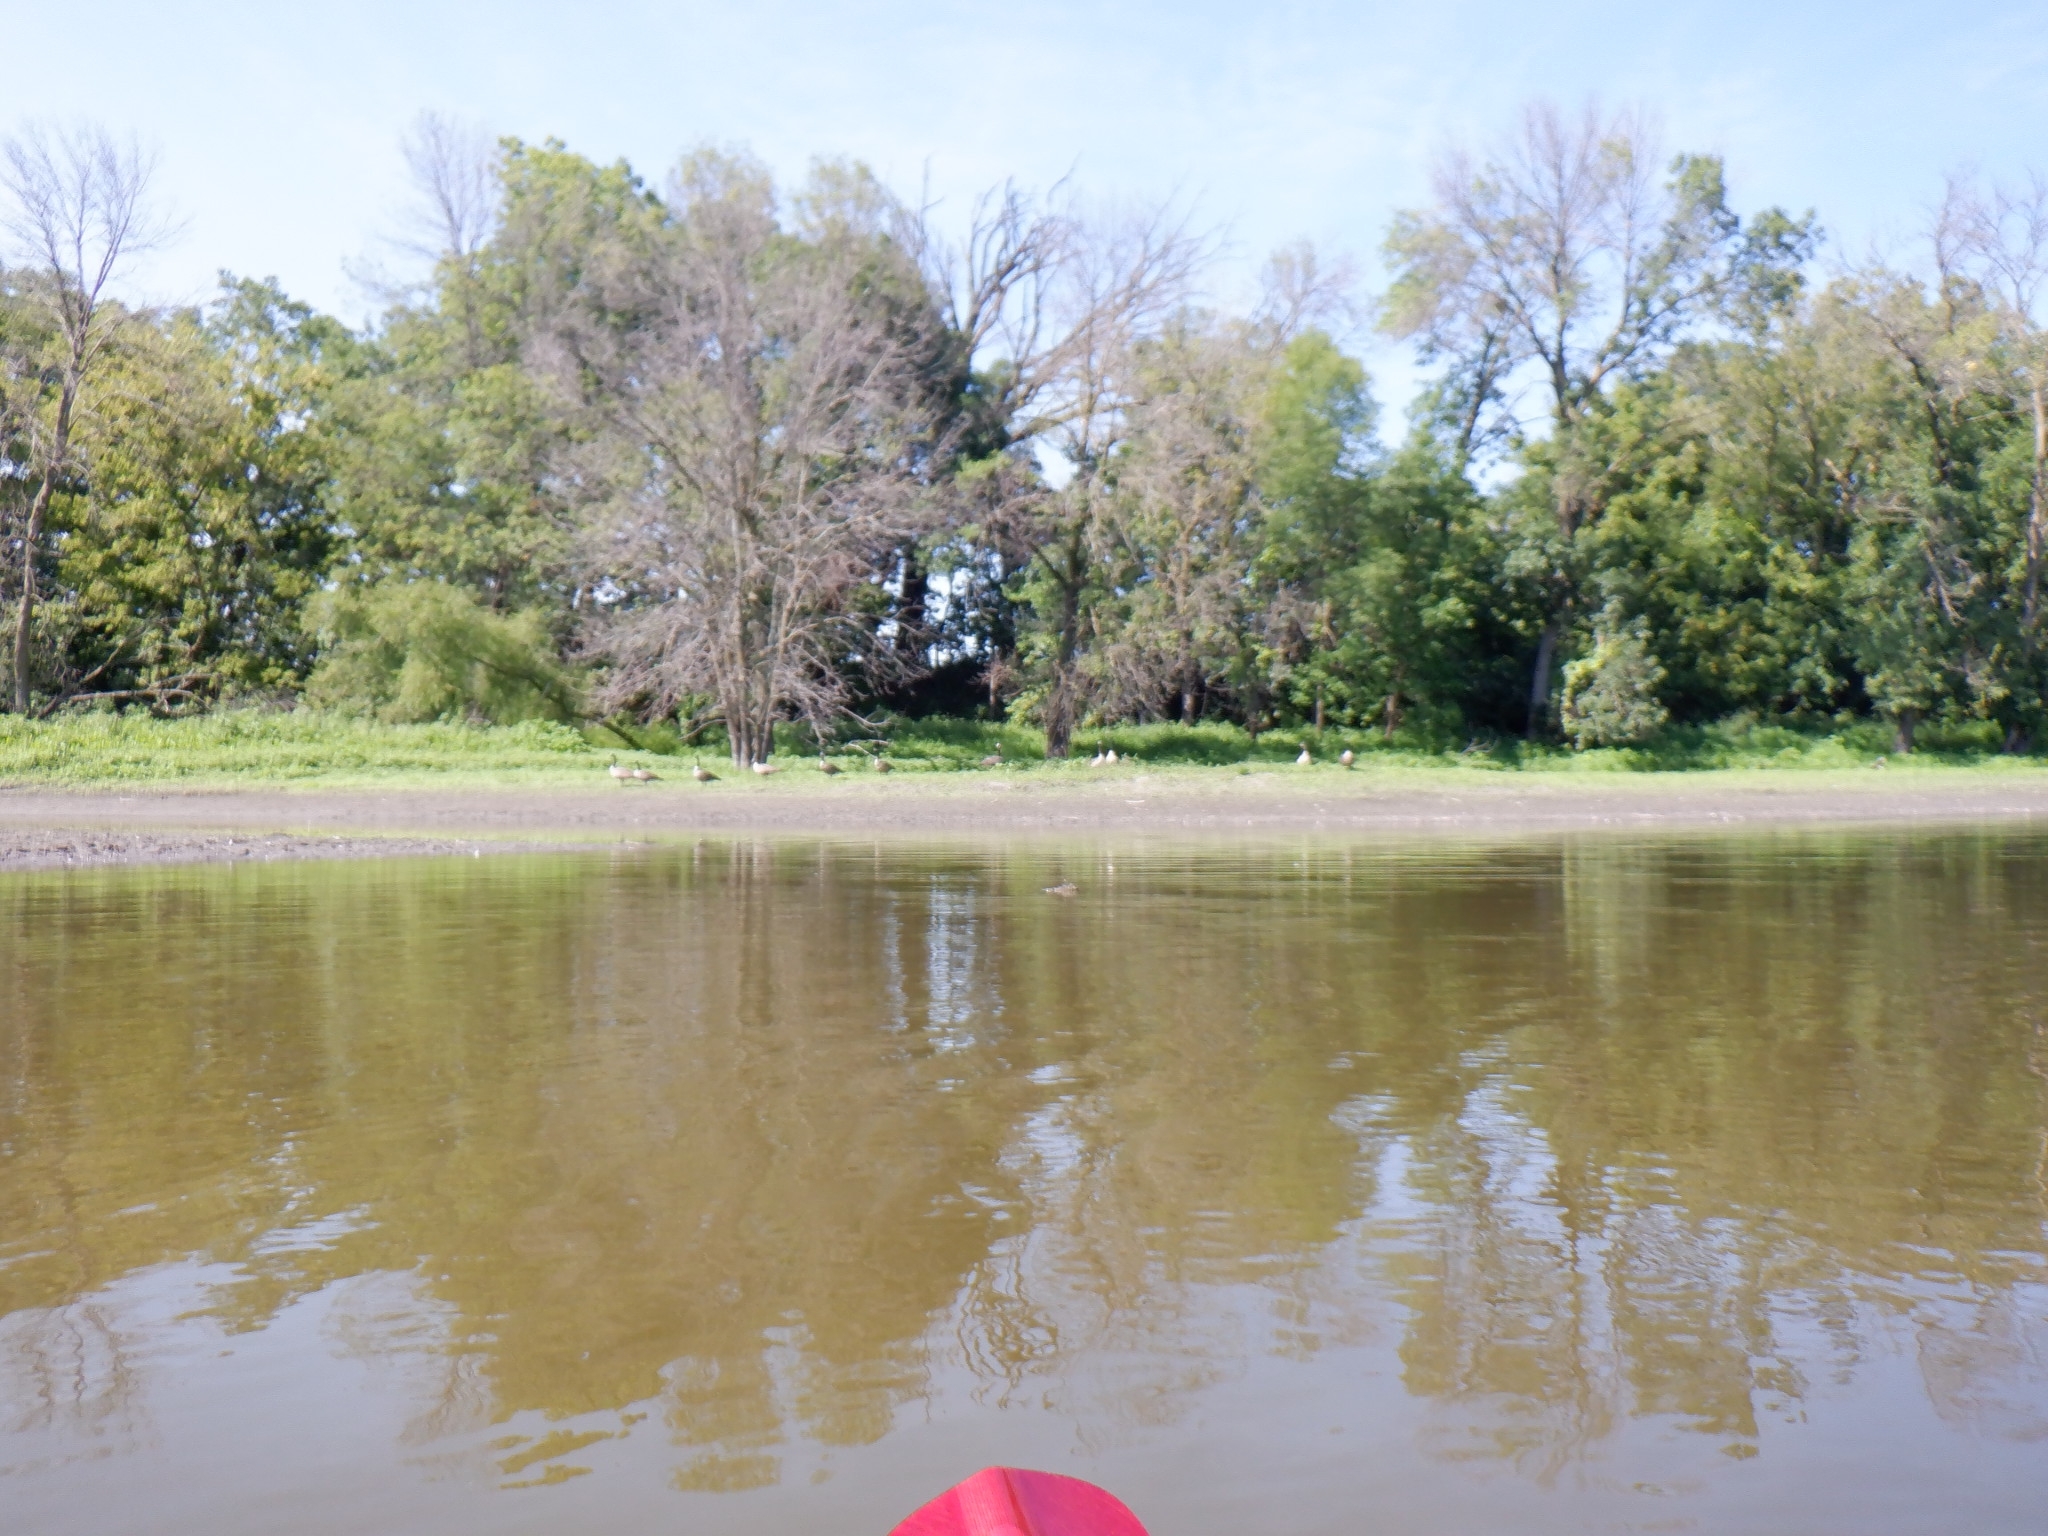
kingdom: Animalia
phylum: Chordata
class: Aves
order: Anseriformes
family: Anatidae
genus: Branta
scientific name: Branta canadensis
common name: Canada goose
